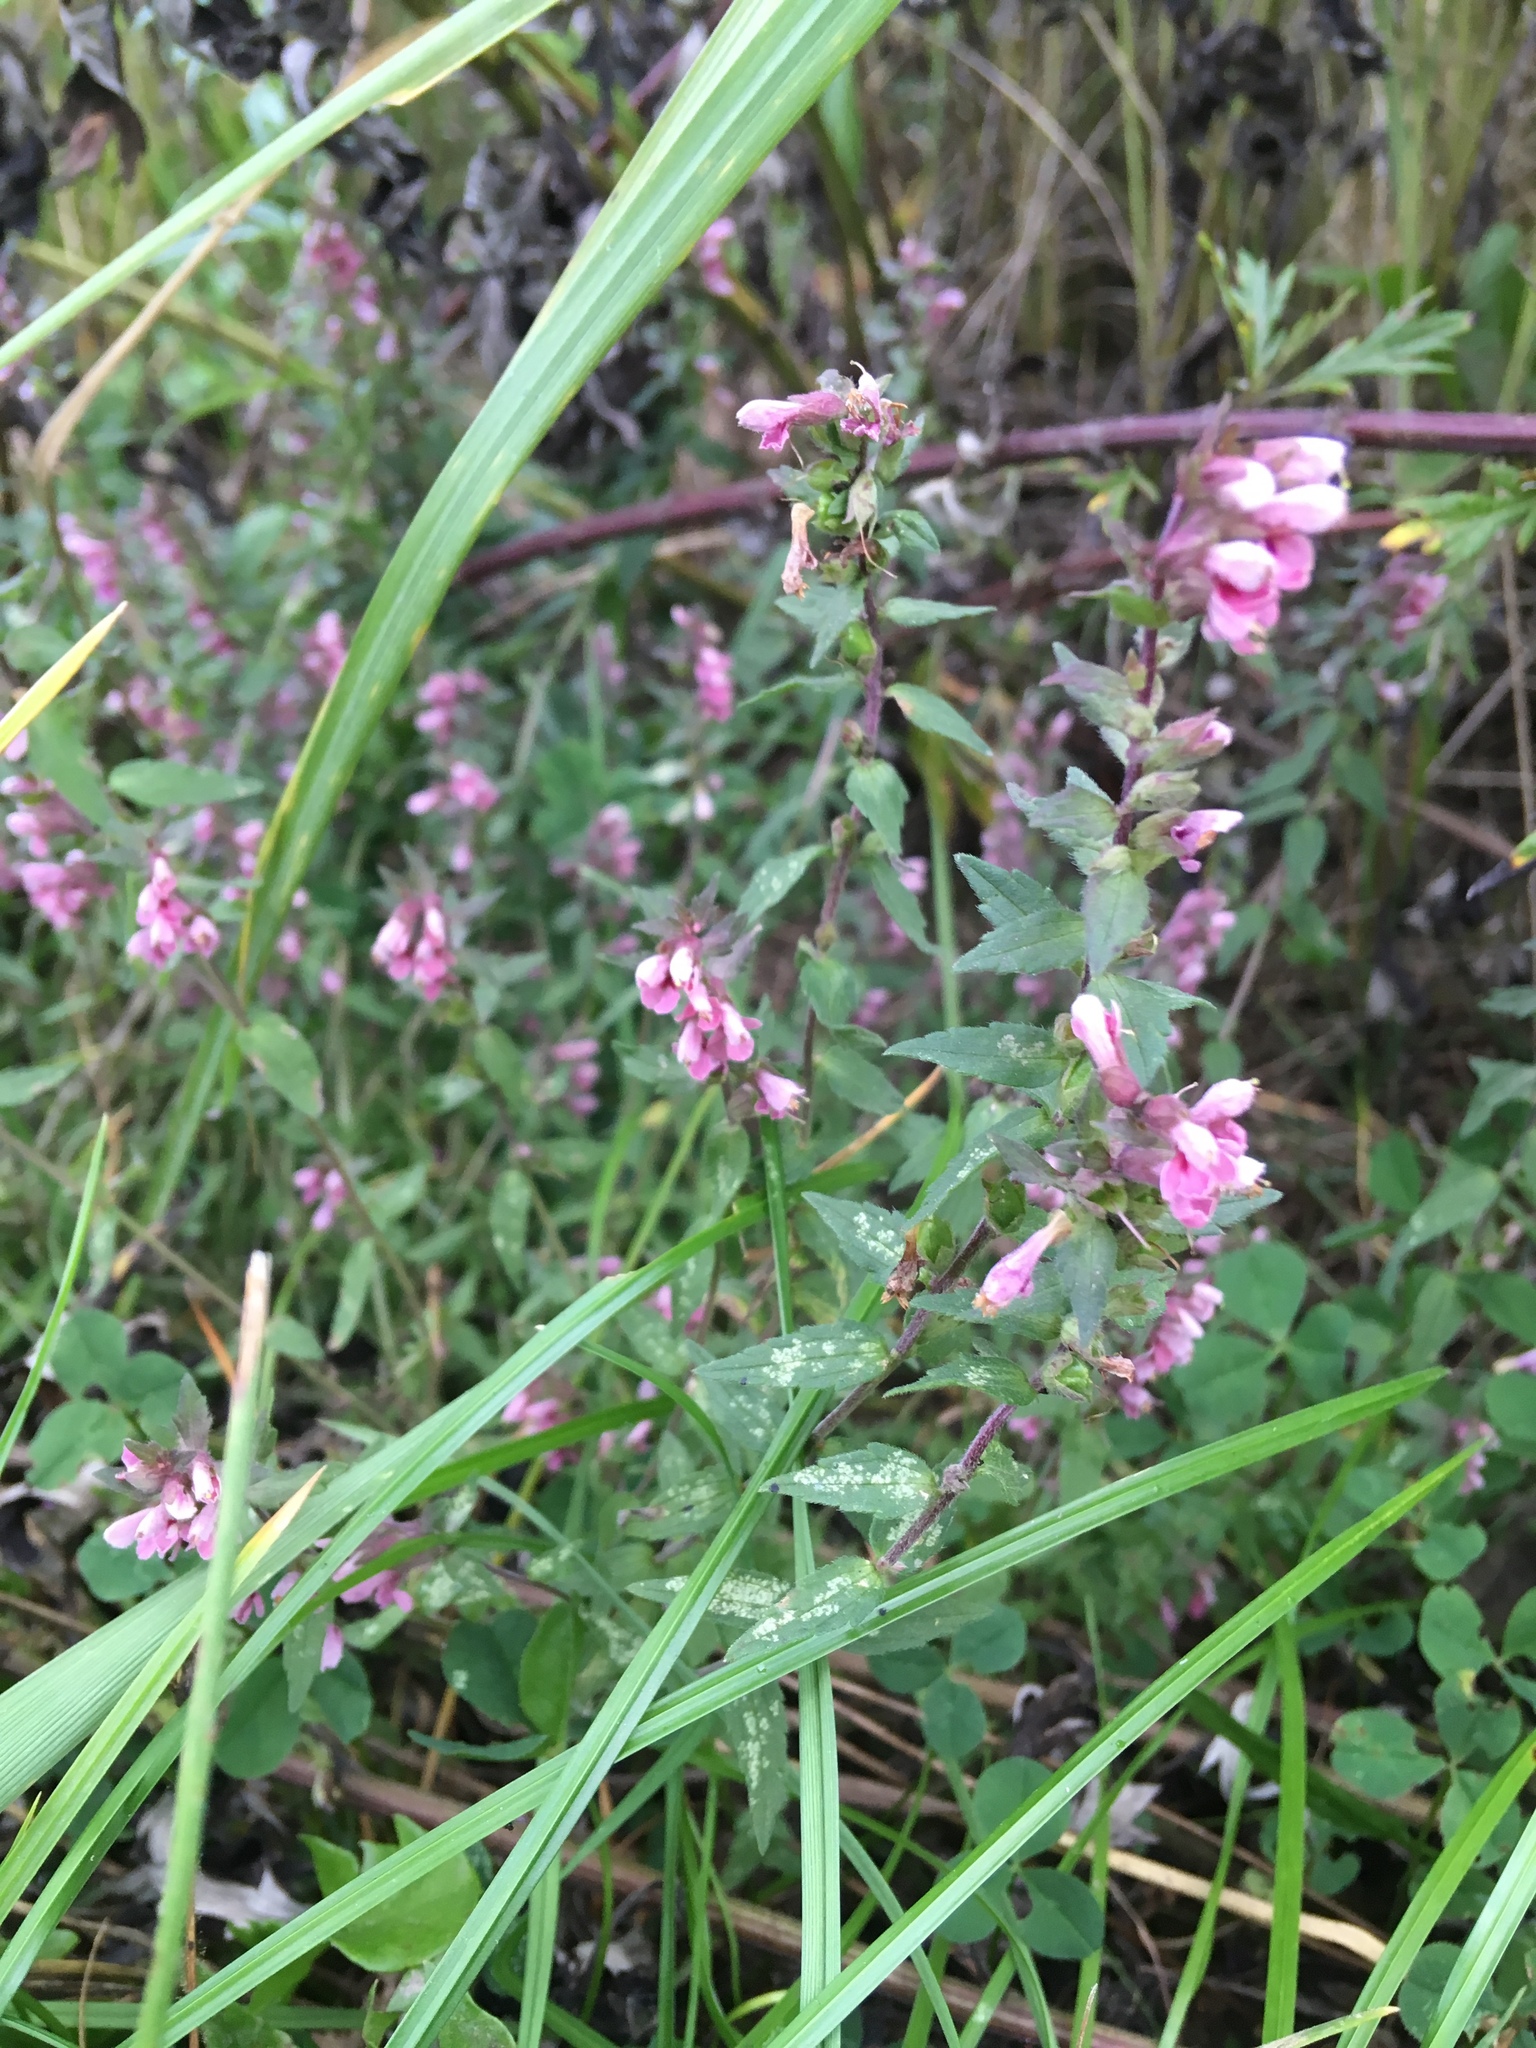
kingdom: Plantae
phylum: Tracheophyta
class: Magnoliopsida
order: Lamiales
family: Orobanchaceae
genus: Odontites
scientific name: Odontites vulgaris
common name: Broomrape
